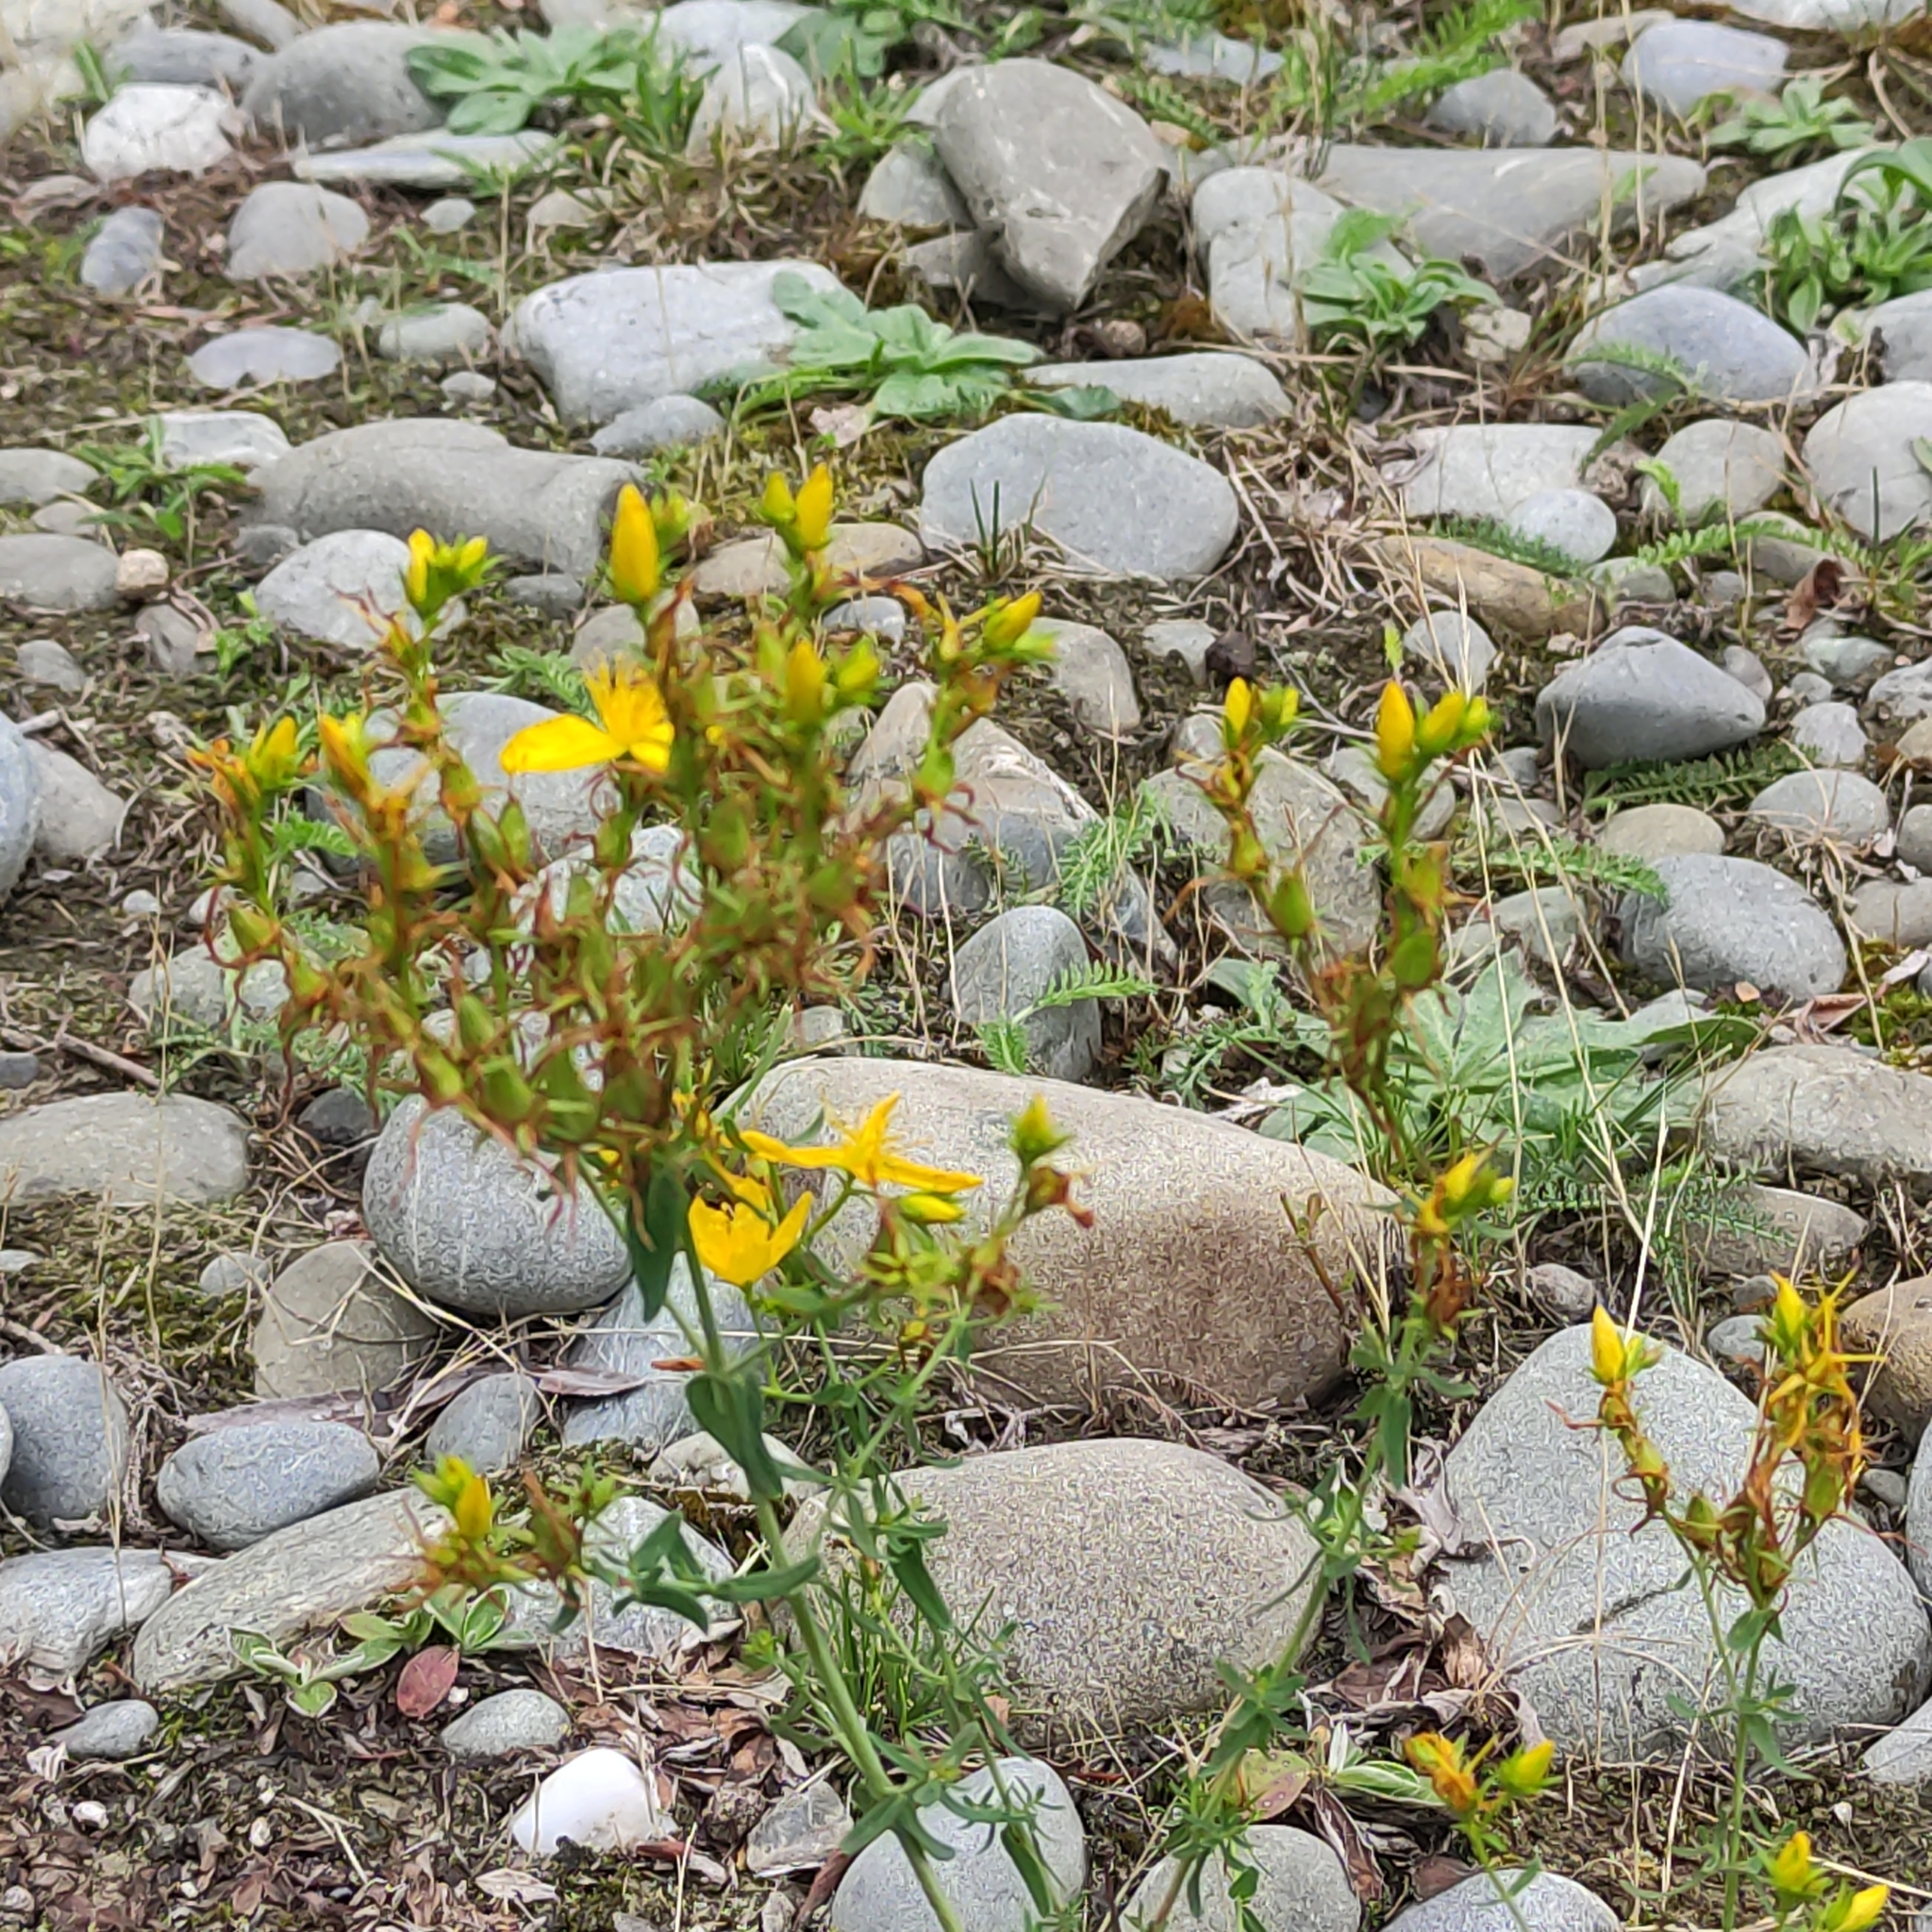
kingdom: Plantae
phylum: Tracheophyta
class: Magnoliopsida
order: Malpighiales
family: Hypericaceae
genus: Hypericum
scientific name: Hypericum perforatum
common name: Common st. johnswort
